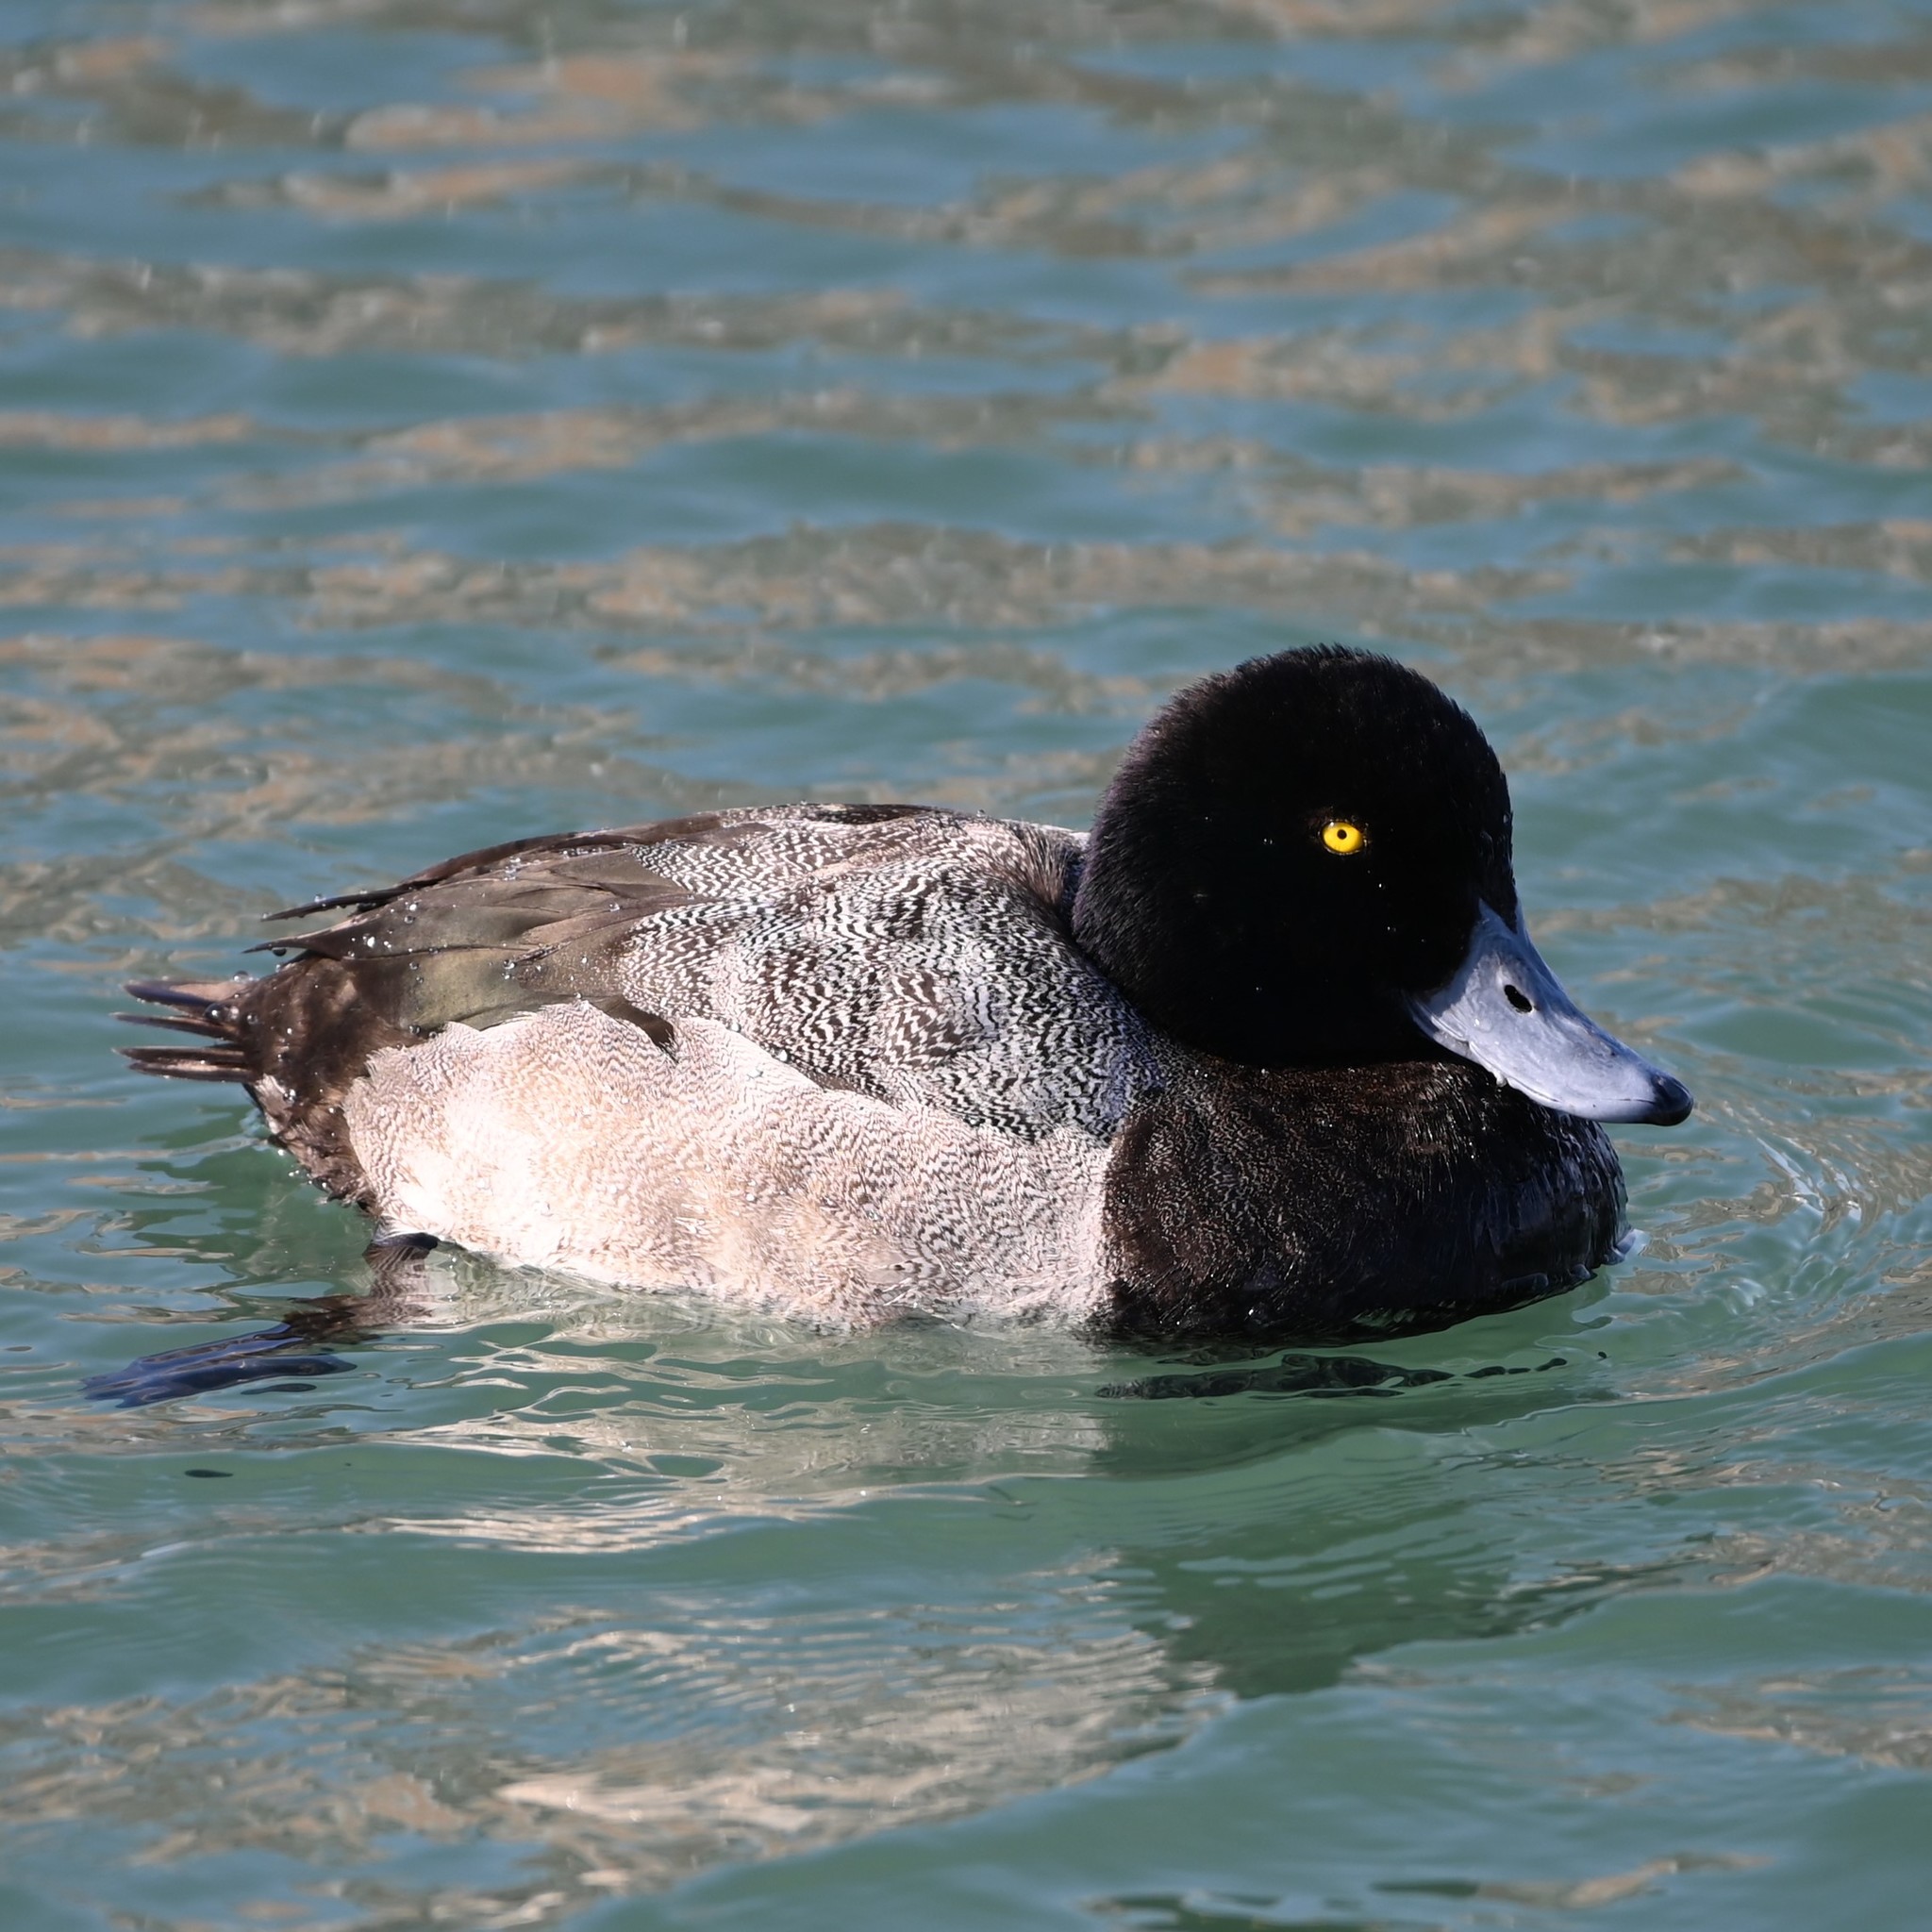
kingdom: Animalia
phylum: Chordata
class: Aves
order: Anseriformes
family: Anatidae
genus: Aythya
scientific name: Aythya marila
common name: Greater scaup
